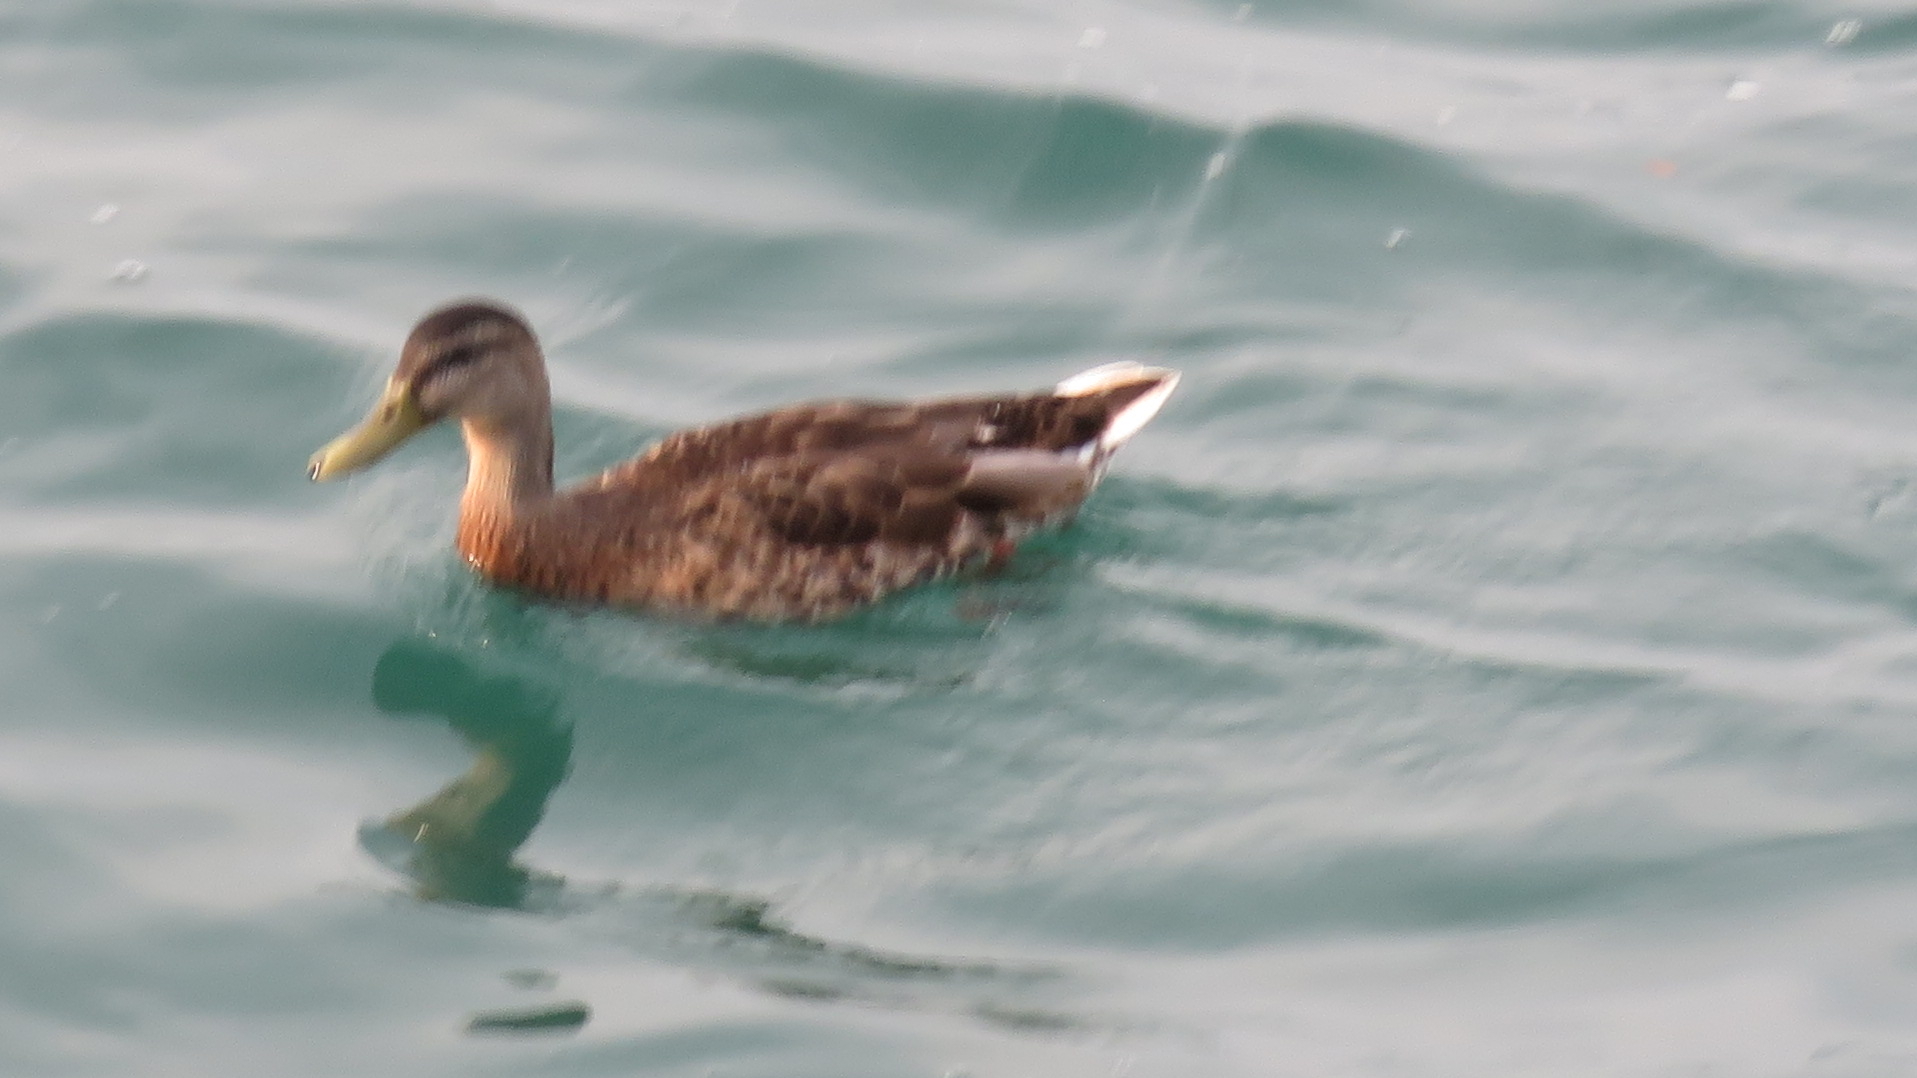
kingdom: Animalia
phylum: Chordata
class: Aves
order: Anseriformes
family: Anatidae
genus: Anas
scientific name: Anas platyrhynchos
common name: Mallard
